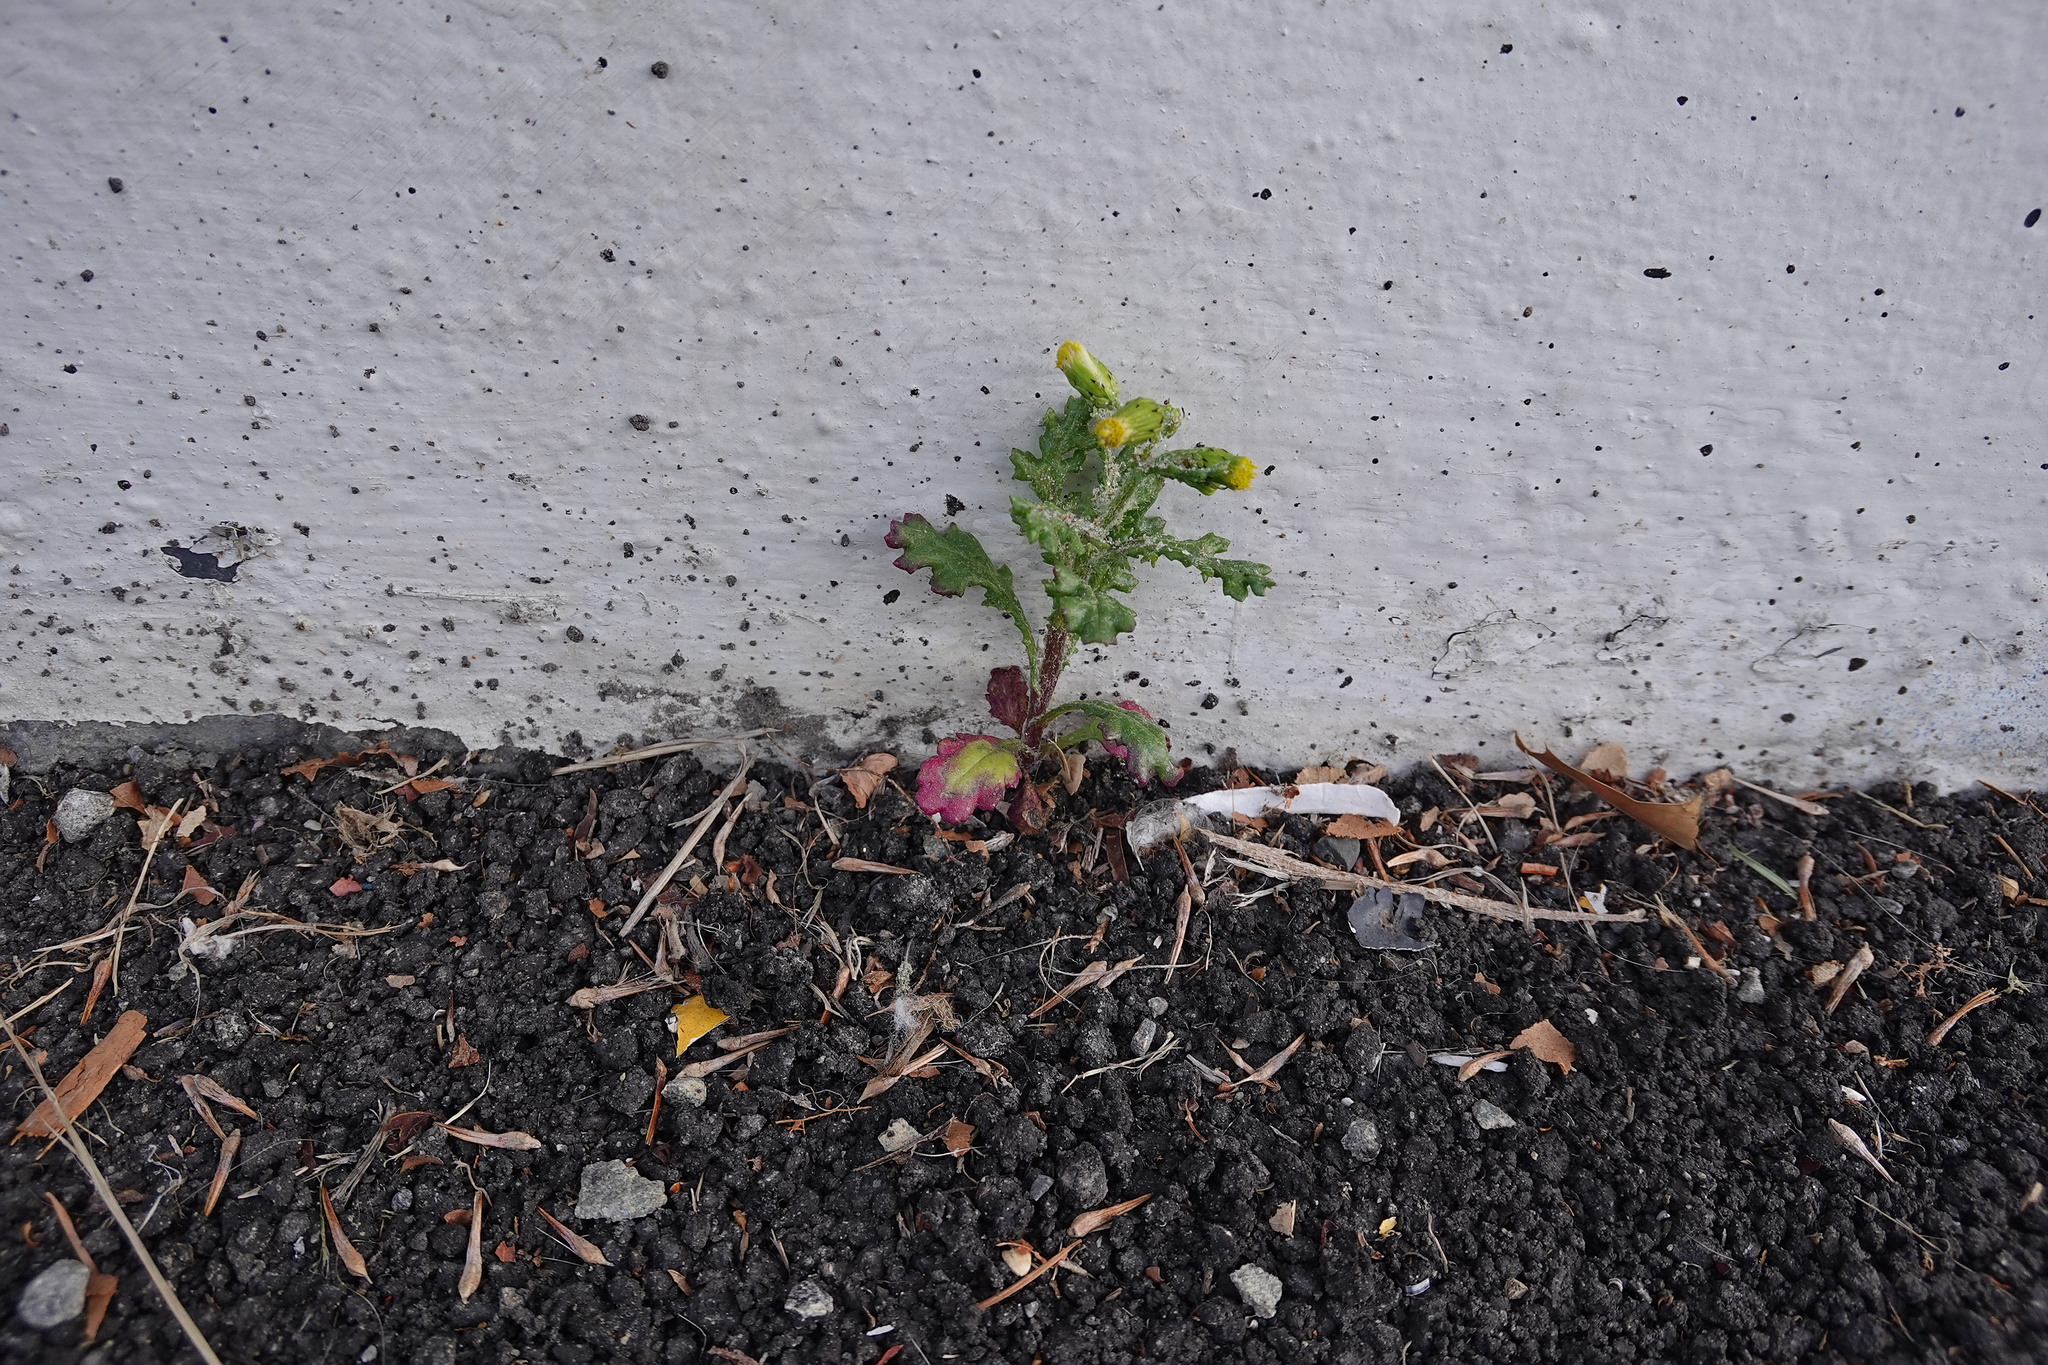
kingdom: Plantae
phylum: Tracheophyta
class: Magnoliopsida
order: Asterales
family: Asteraceae
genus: Senecio
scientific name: Senecio vulgaris
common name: Old-man-in-the-spring
